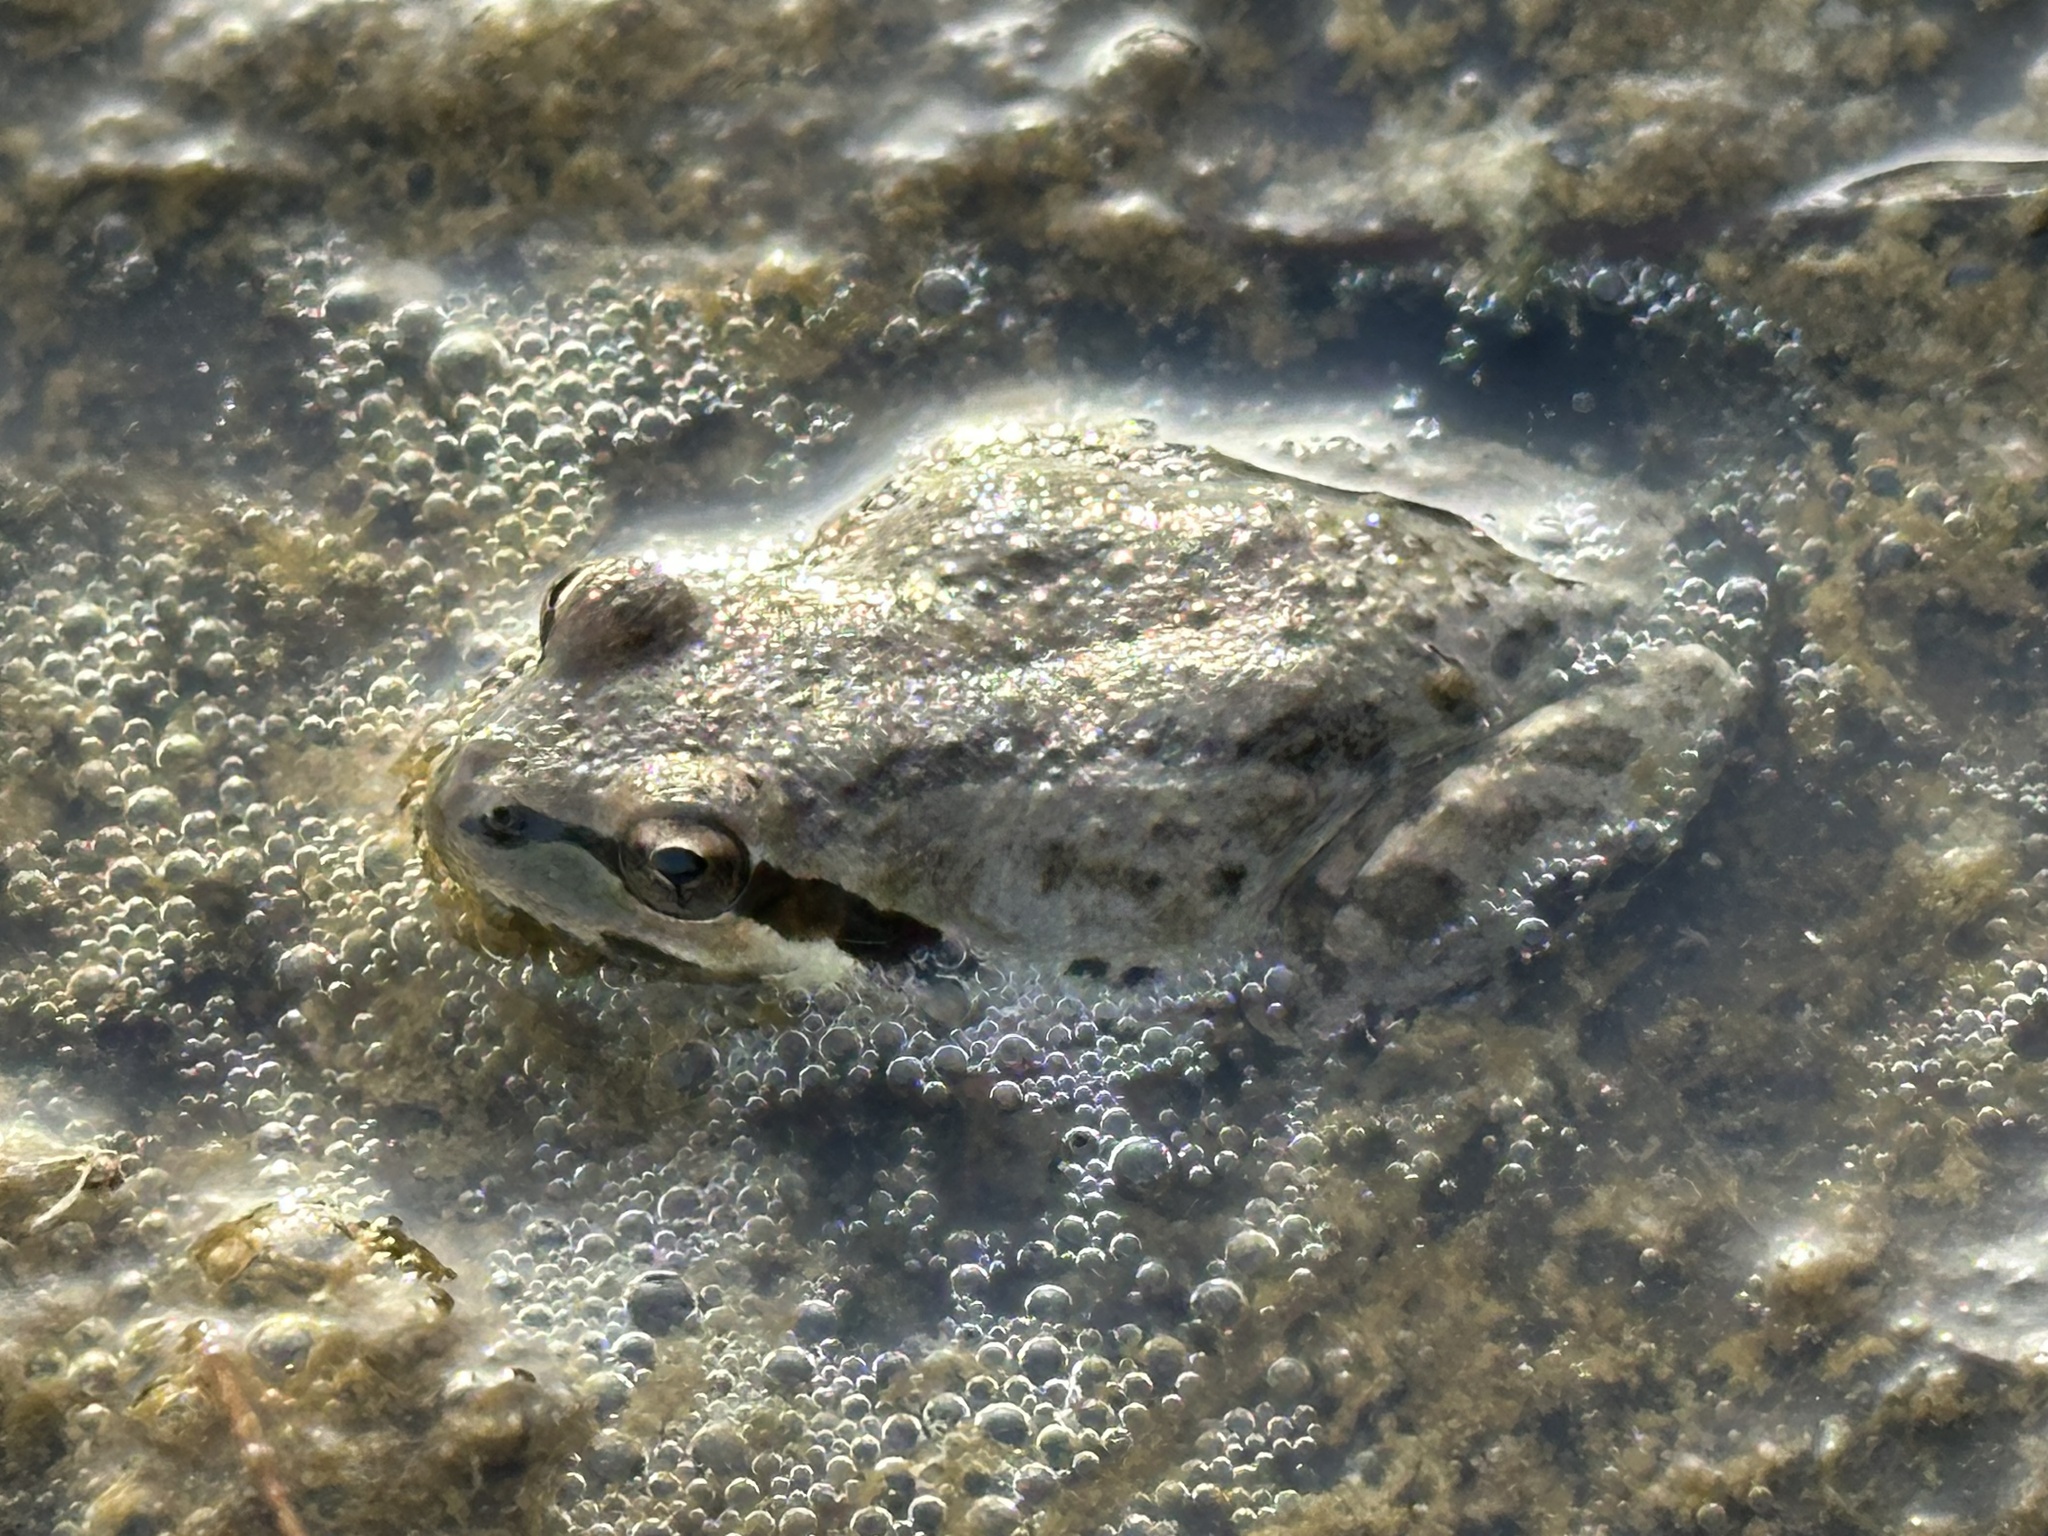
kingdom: Animalia
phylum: Chordata
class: Amphibia
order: Anura
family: Hylidae
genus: Pseudacris
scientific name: Pseudacris regilla
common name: Pacific chorus frog
